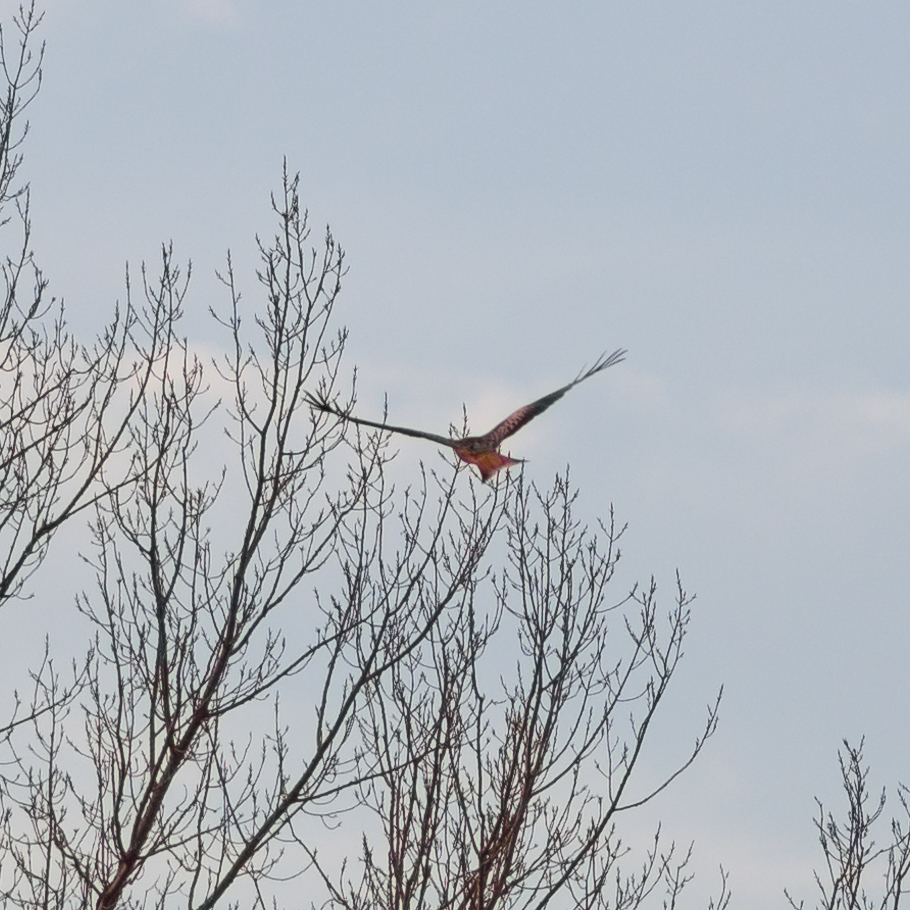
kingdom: Animalia
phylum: Chordata
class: Aves
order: Accipitriformes
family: Accipitridae
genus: Milvus
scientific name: Milvus milvus
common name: Red kite
